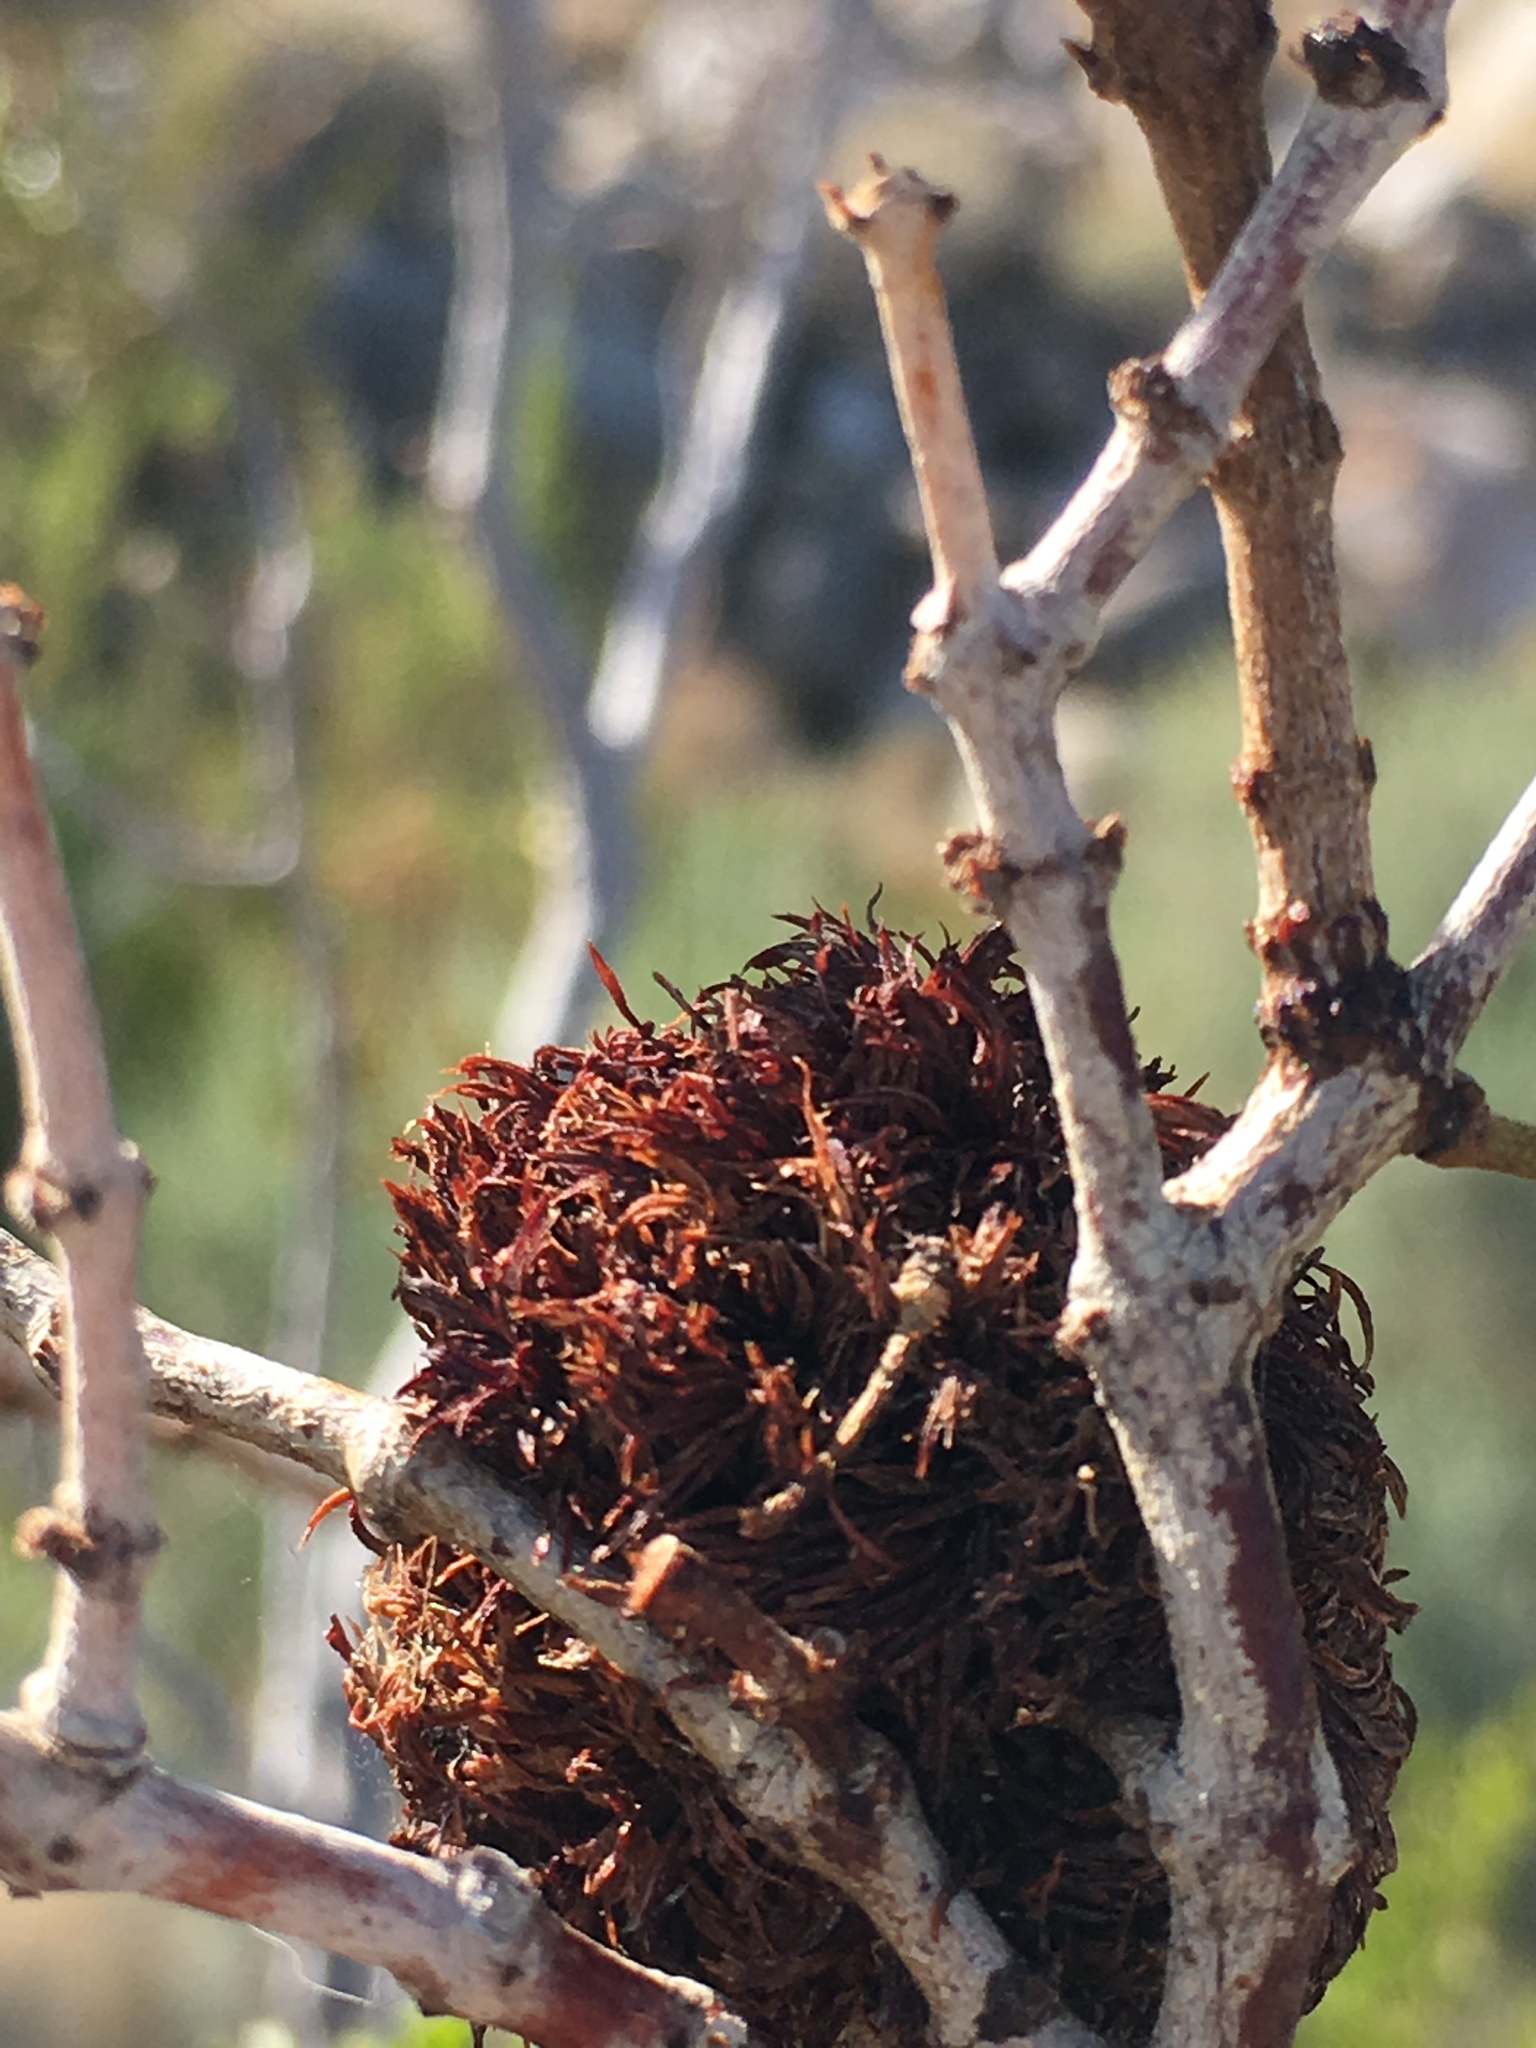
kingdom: Animalia
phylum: Arthropoda
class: Insecta
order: Diptera
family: Cecidomyiidae
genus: Asphondylia
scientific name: Asphondylia auripila
